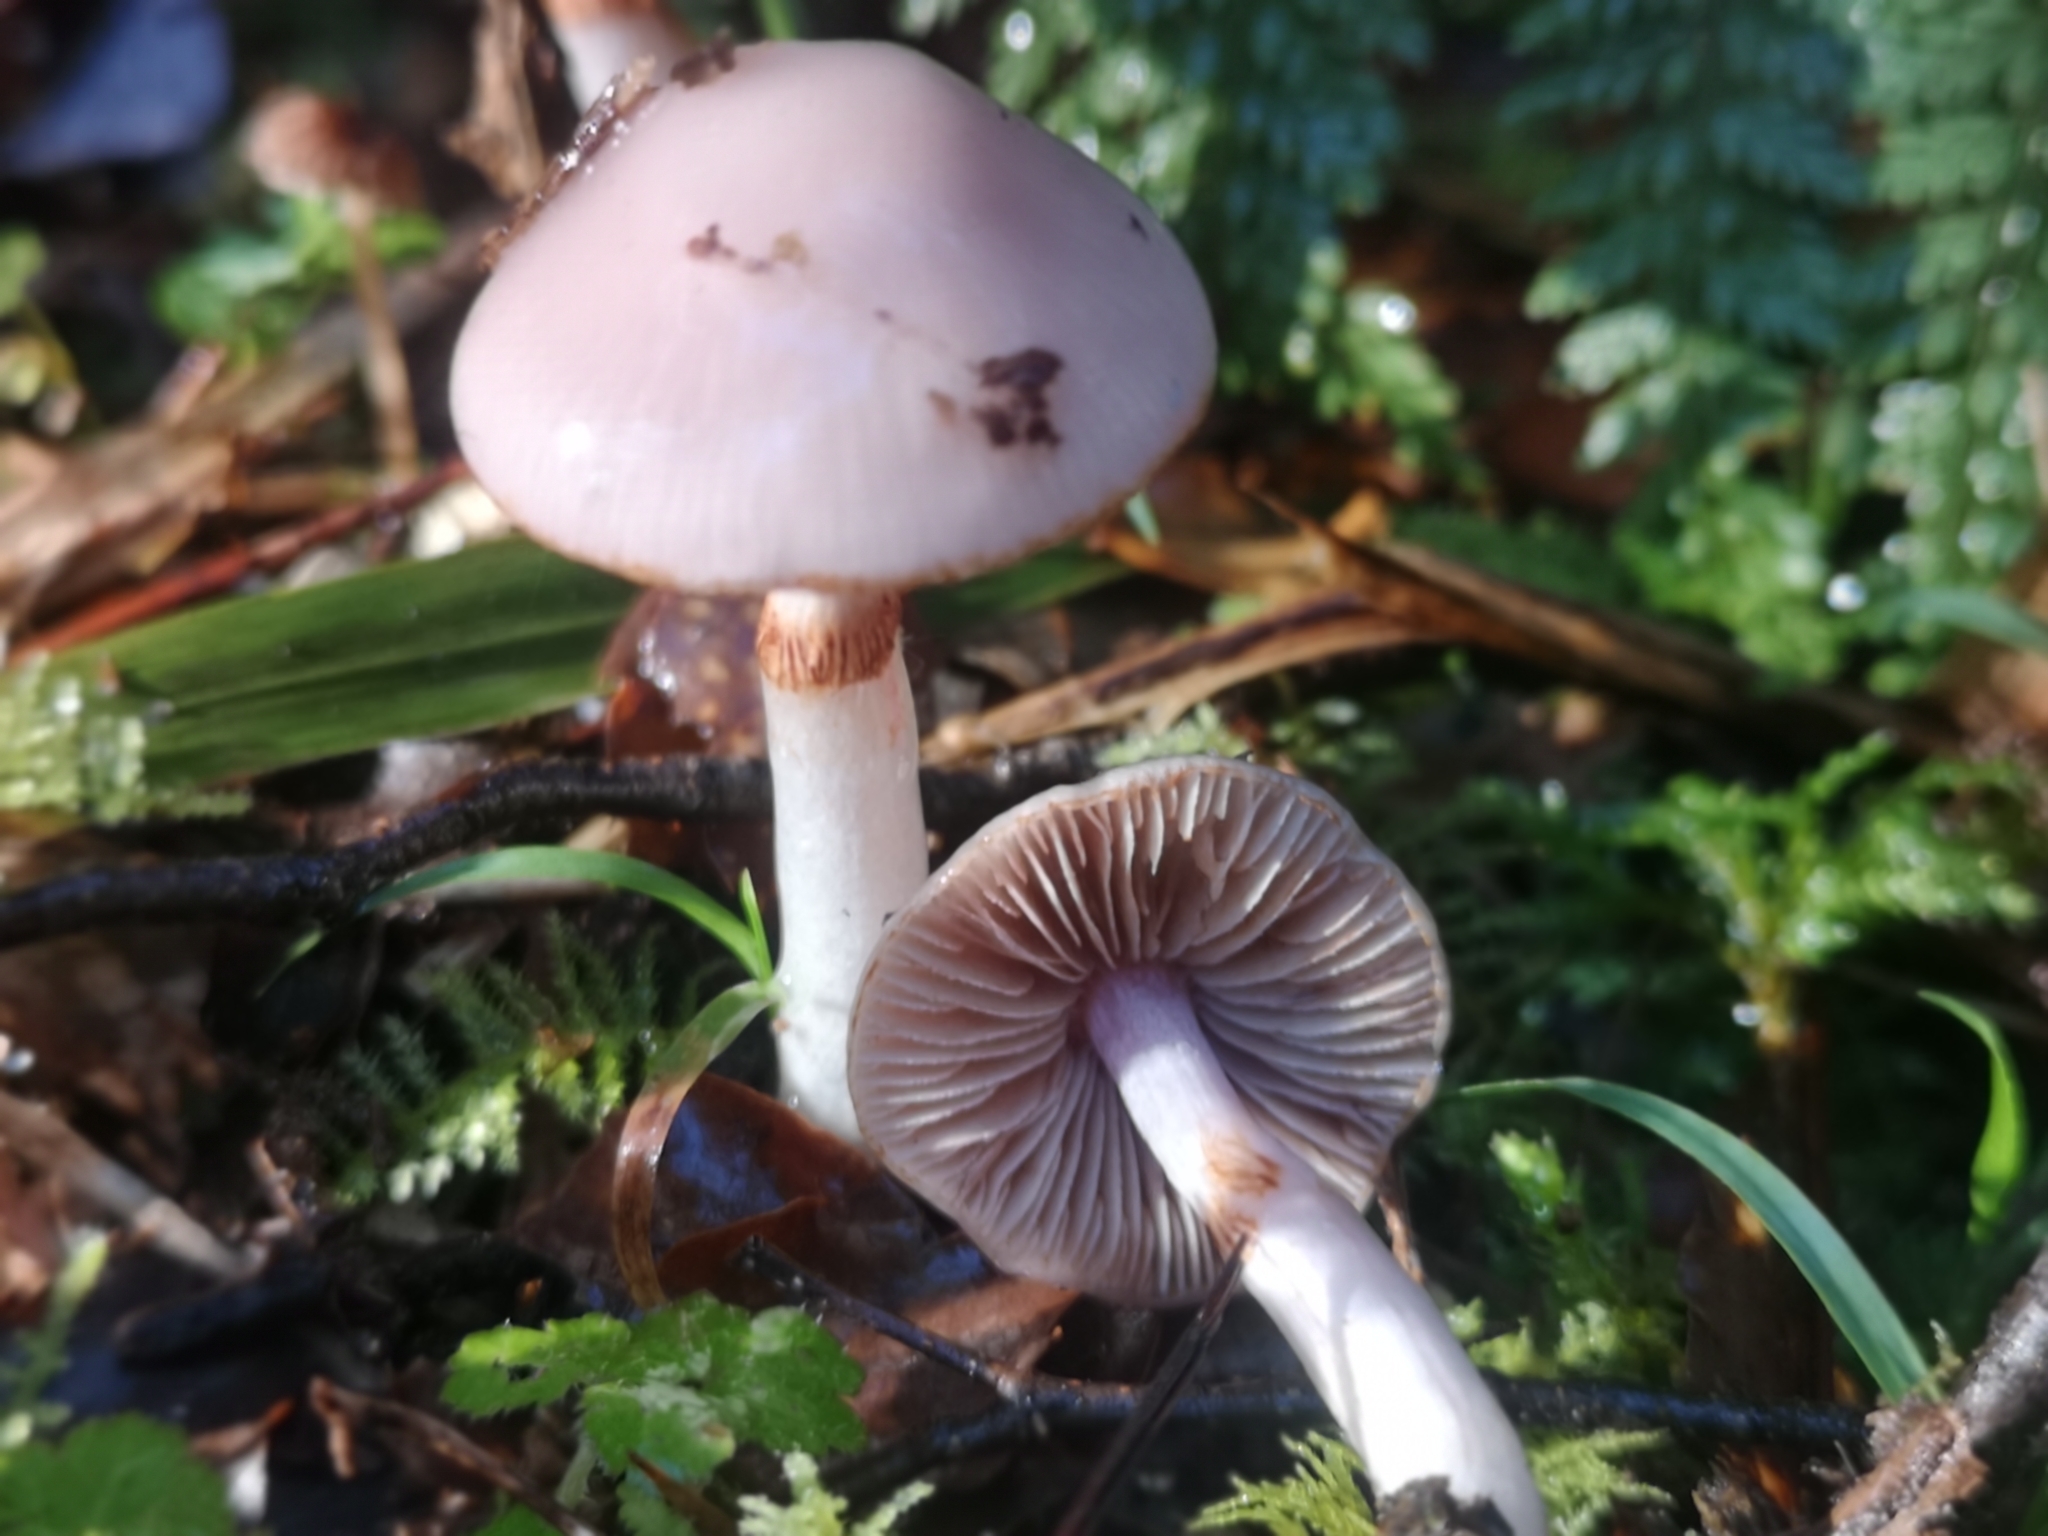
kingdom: Fungi
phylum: Basidiomycota
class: Agaricomycetes
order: Agaricales
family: Cortinariaceae
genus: Cortinarius
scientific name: Cortinarius lubricanescens
